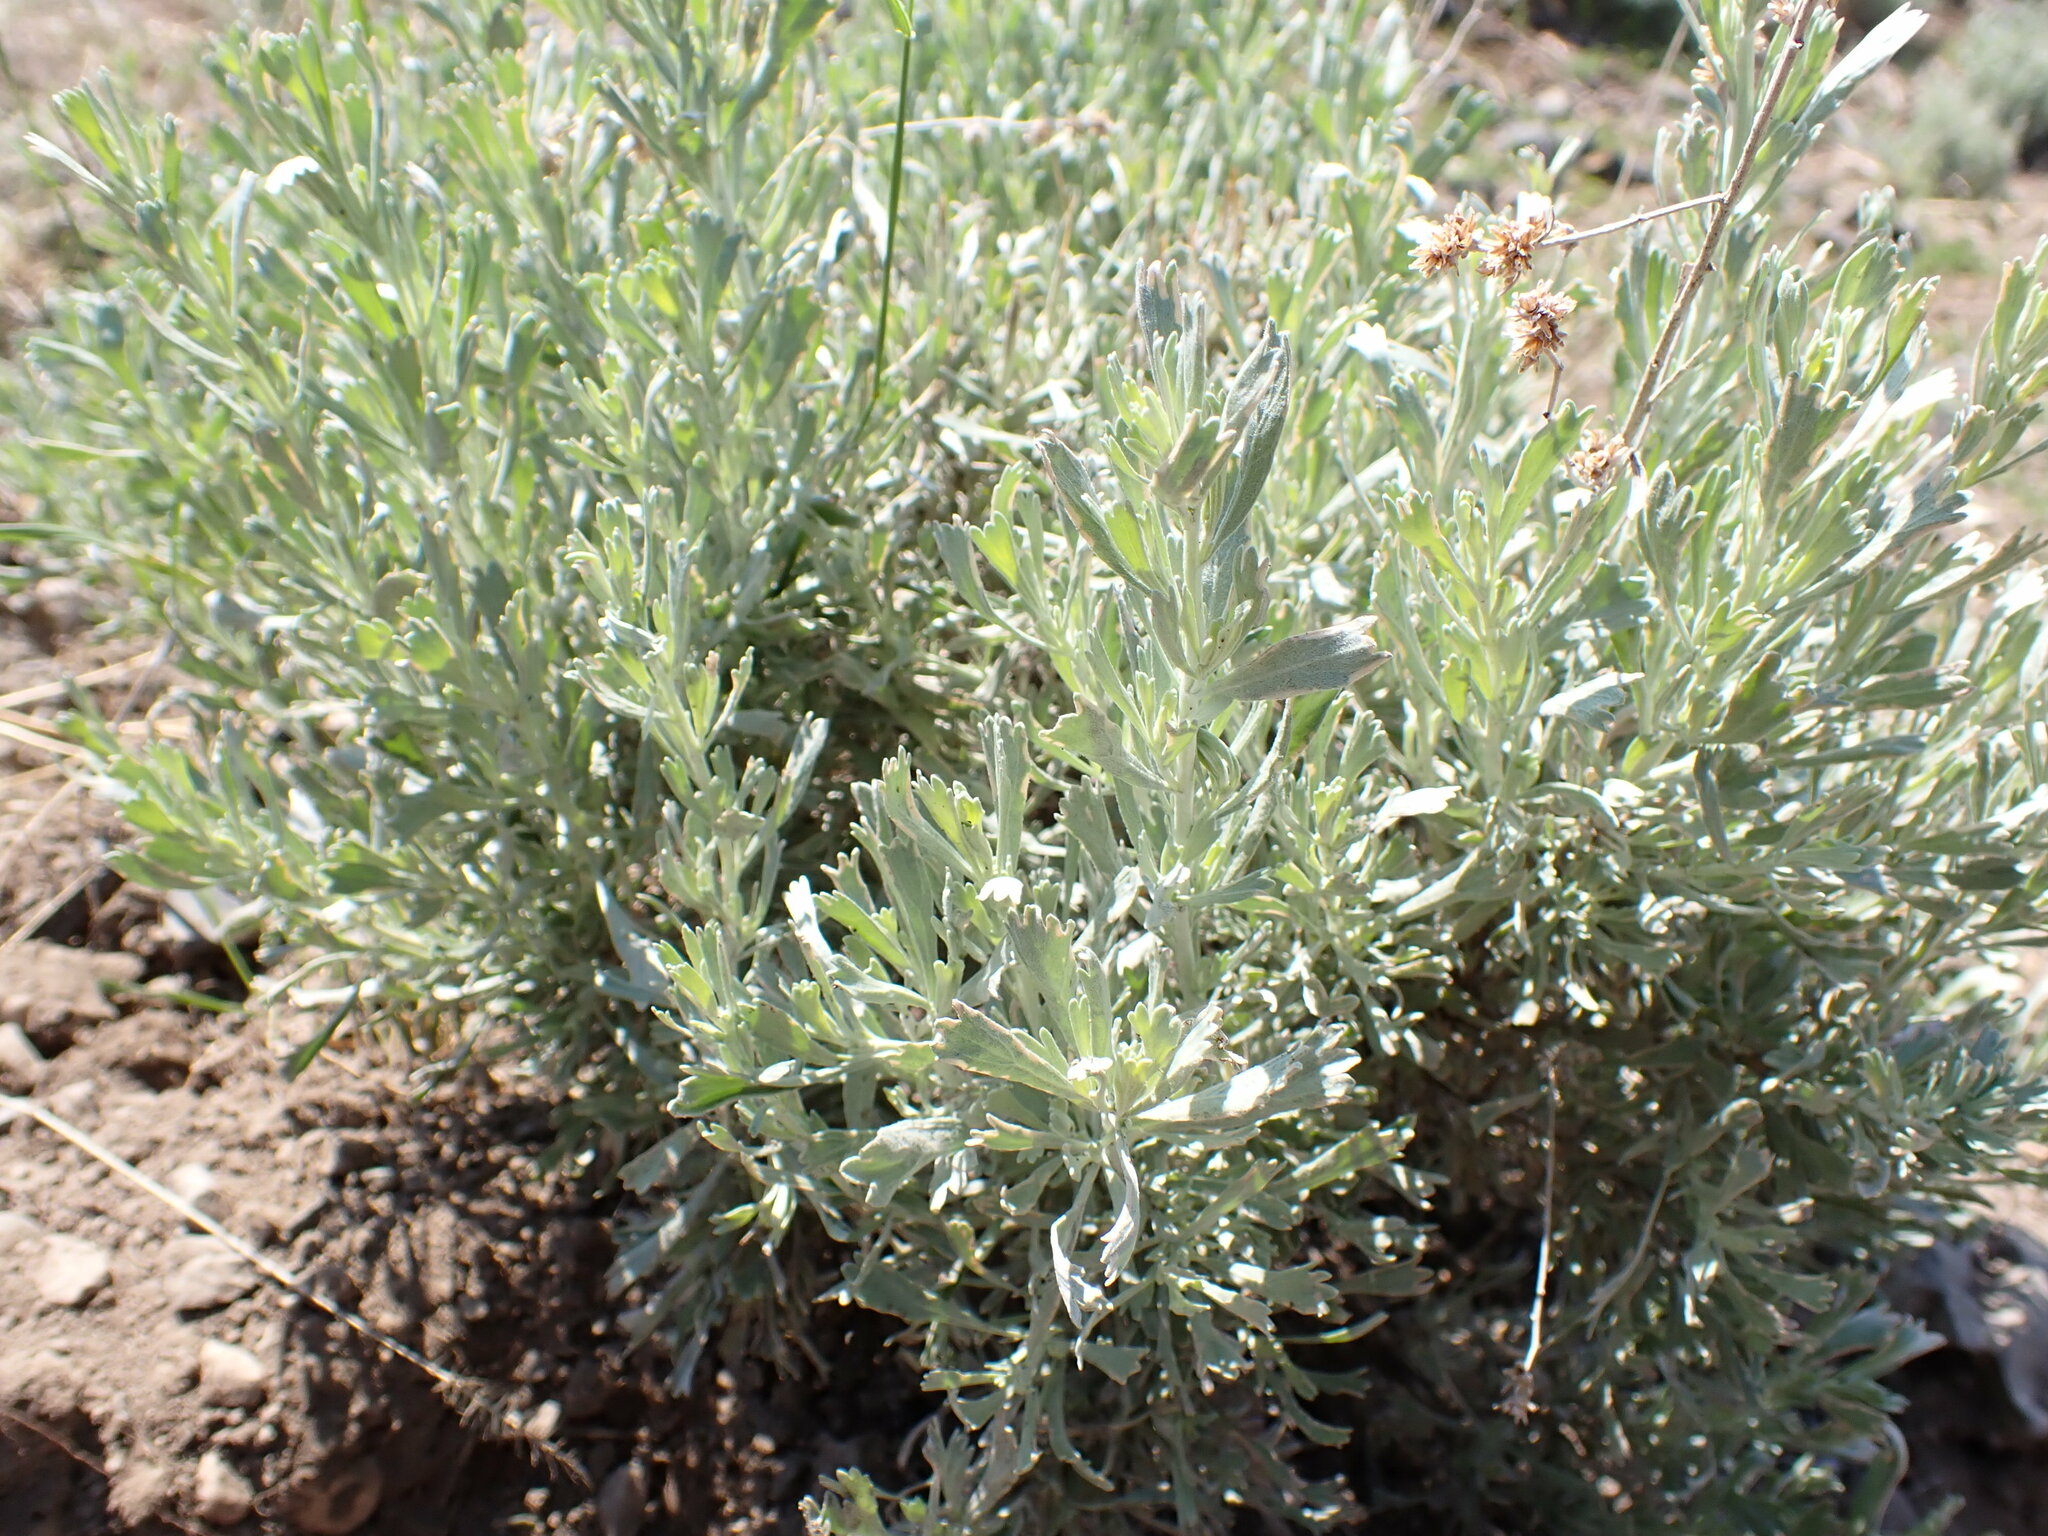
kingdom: Plantae
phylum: Tracheophyta
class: Magnoliopsida
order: Asterales
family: Asteraceae
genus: Artemisia
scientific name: Artemisia tridentata
